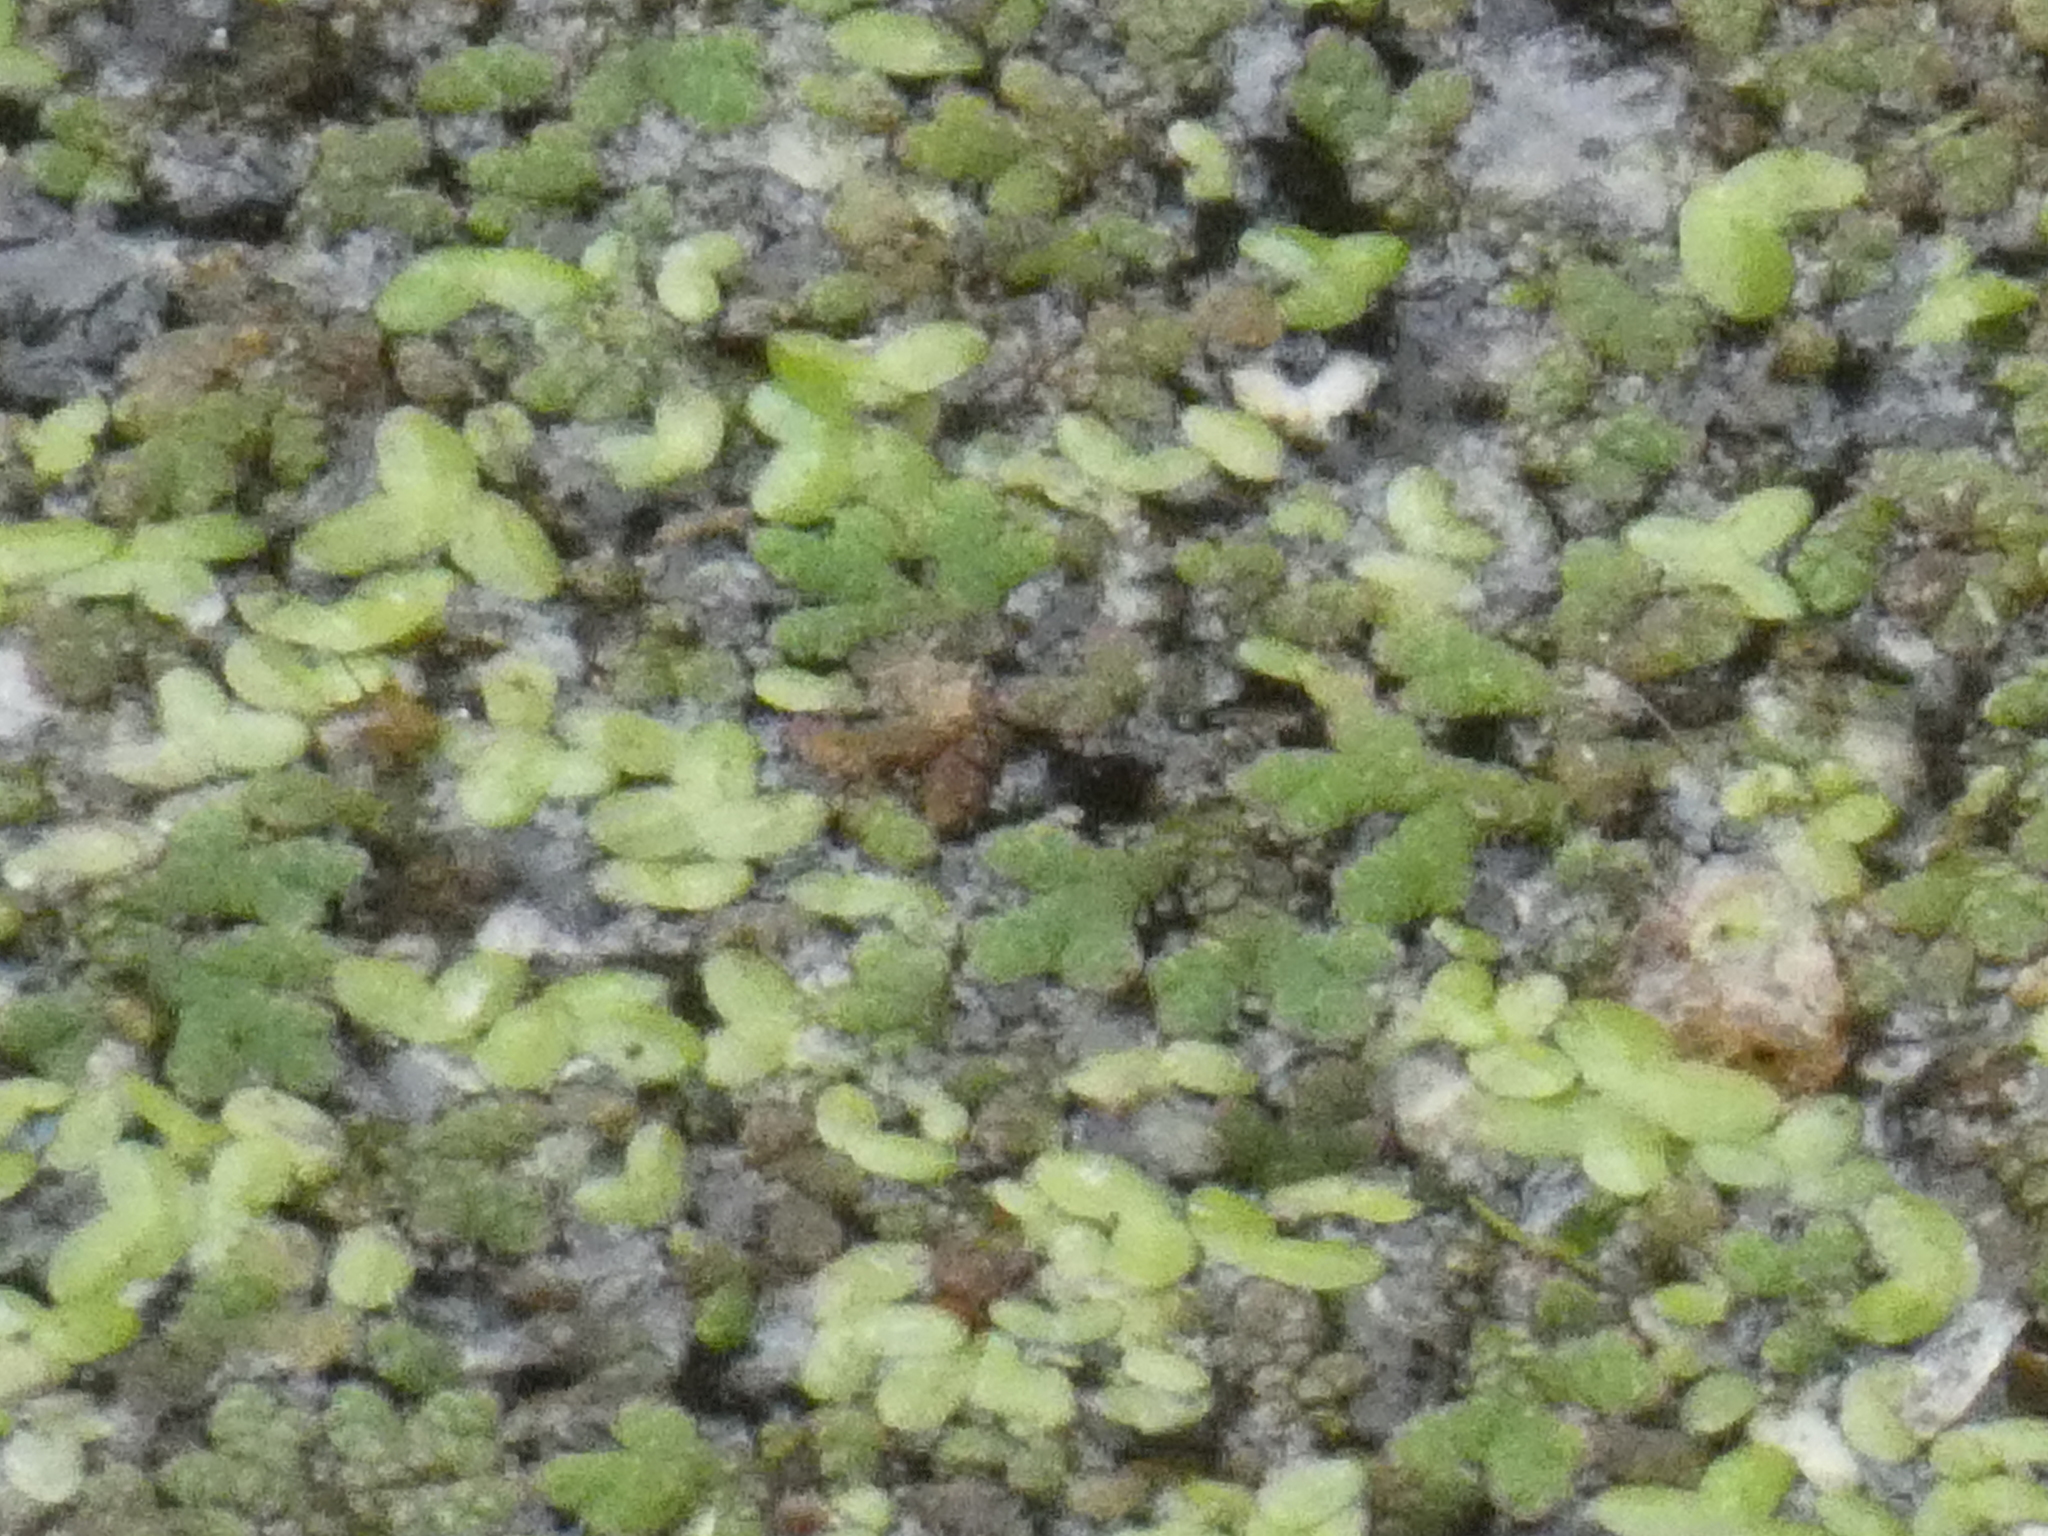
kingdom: Plantae
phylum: Tracheophyta
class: Polypodiopsida
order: Salviniales
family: Salviniaceae
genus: Azolla
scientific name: Azolla rubra
